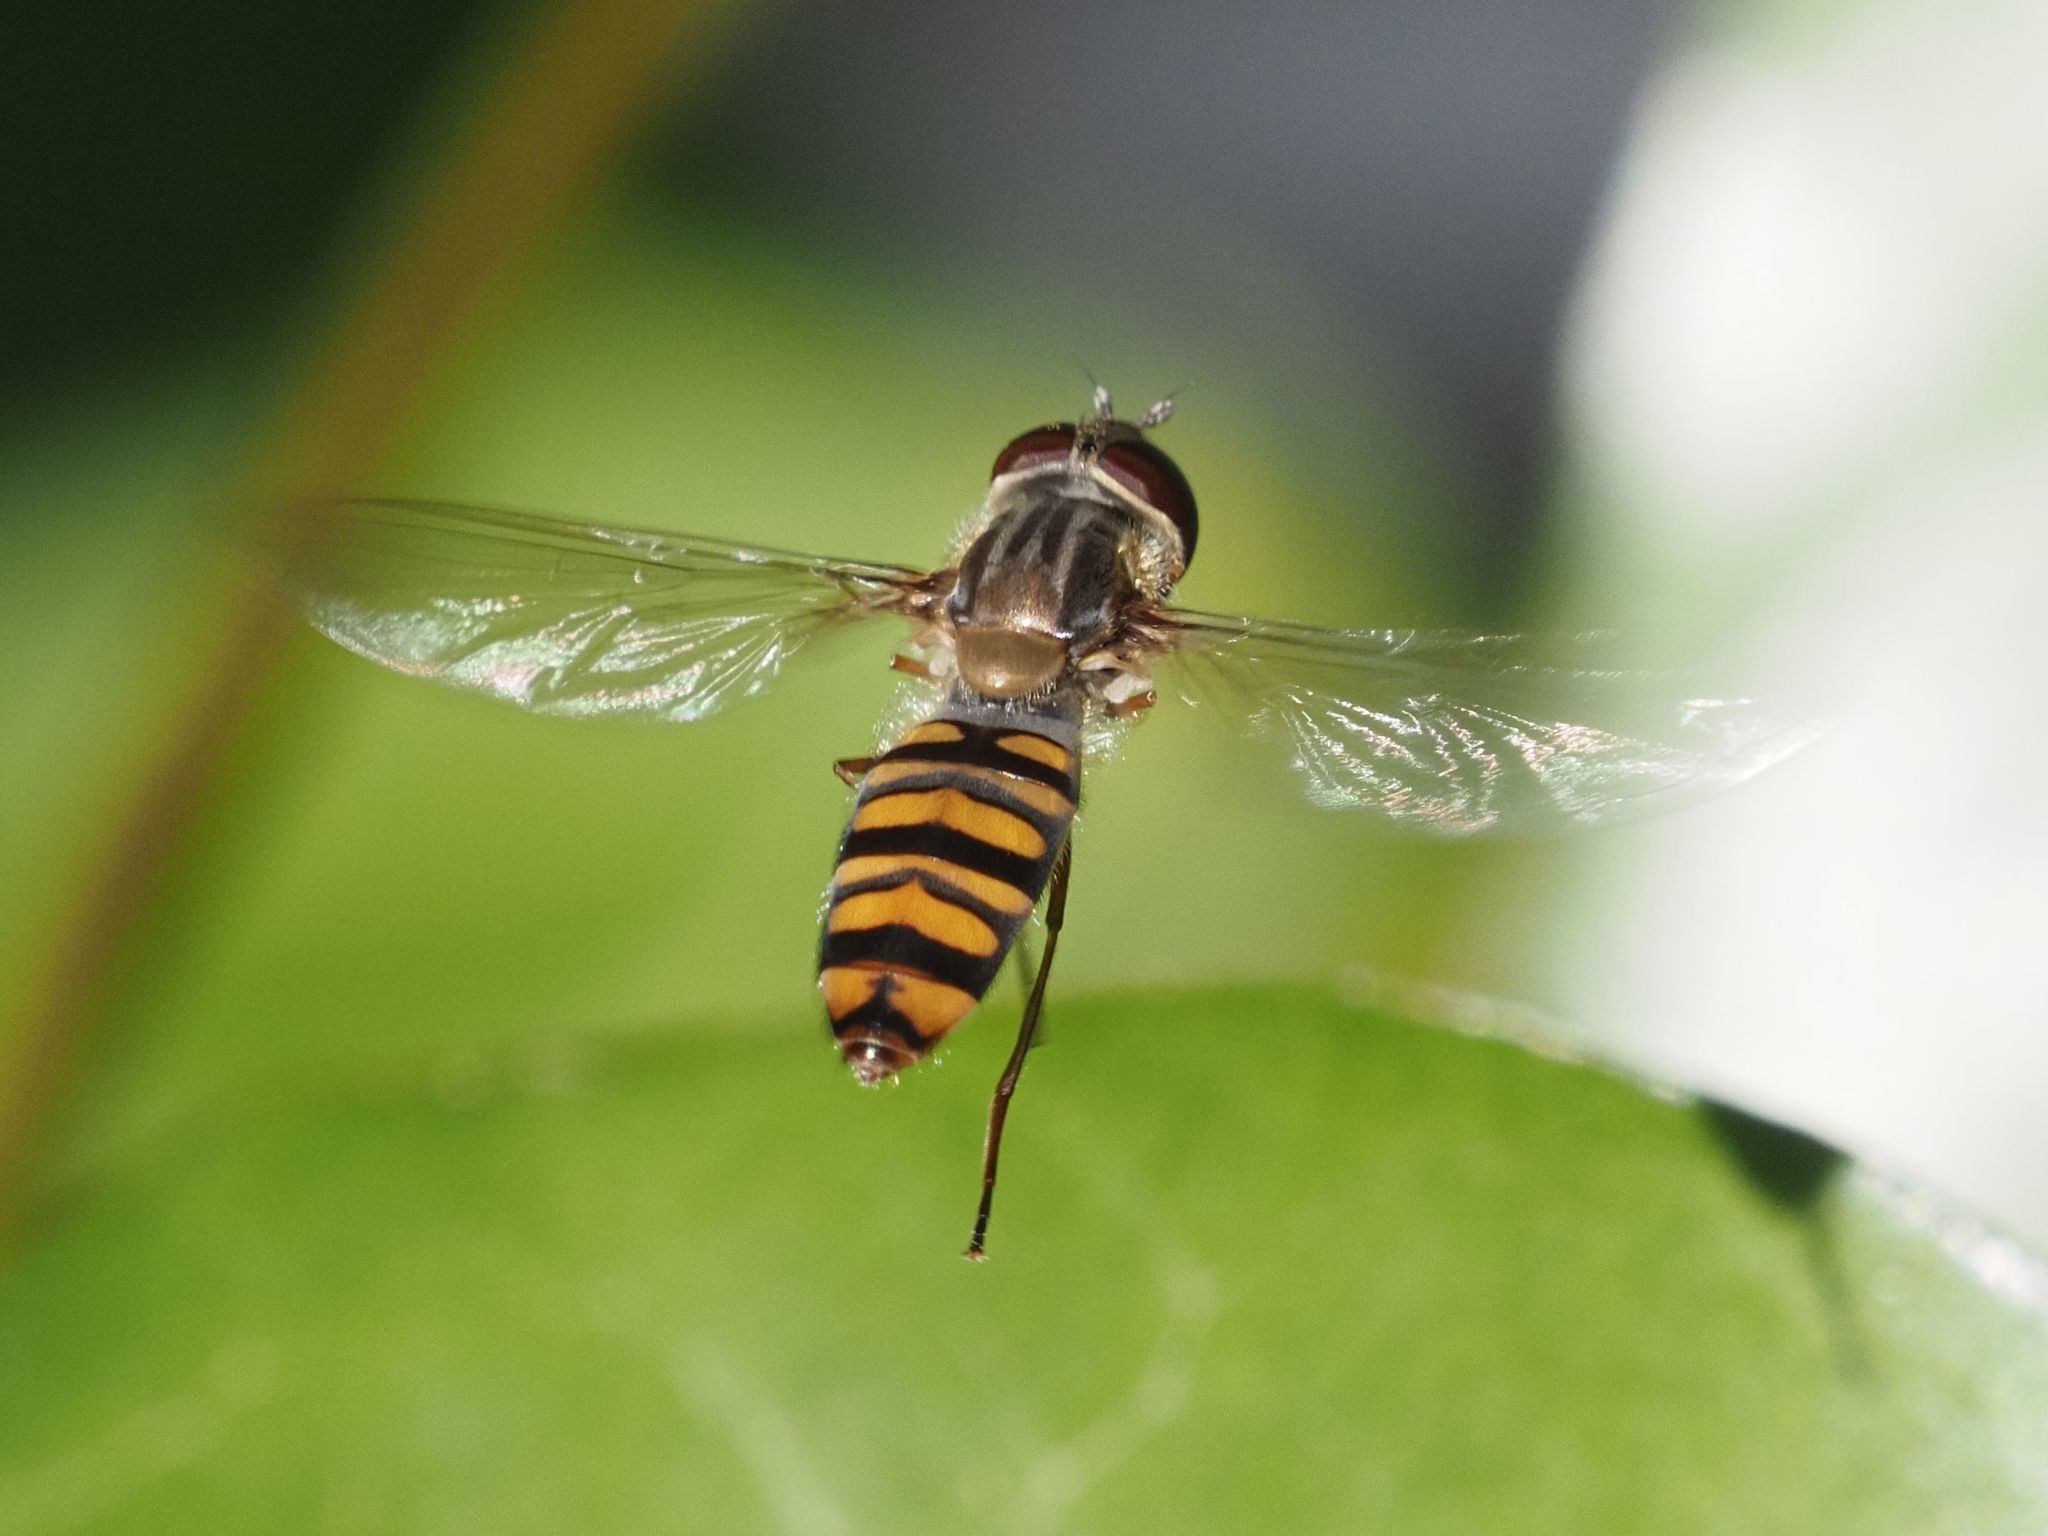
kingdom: Animalia
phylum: Arthropoda
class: Insecta
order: Diptera
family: Syrphidae
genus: Episyrphus
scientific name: Episyrphus balteatus
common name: Marmalade hoverfly
